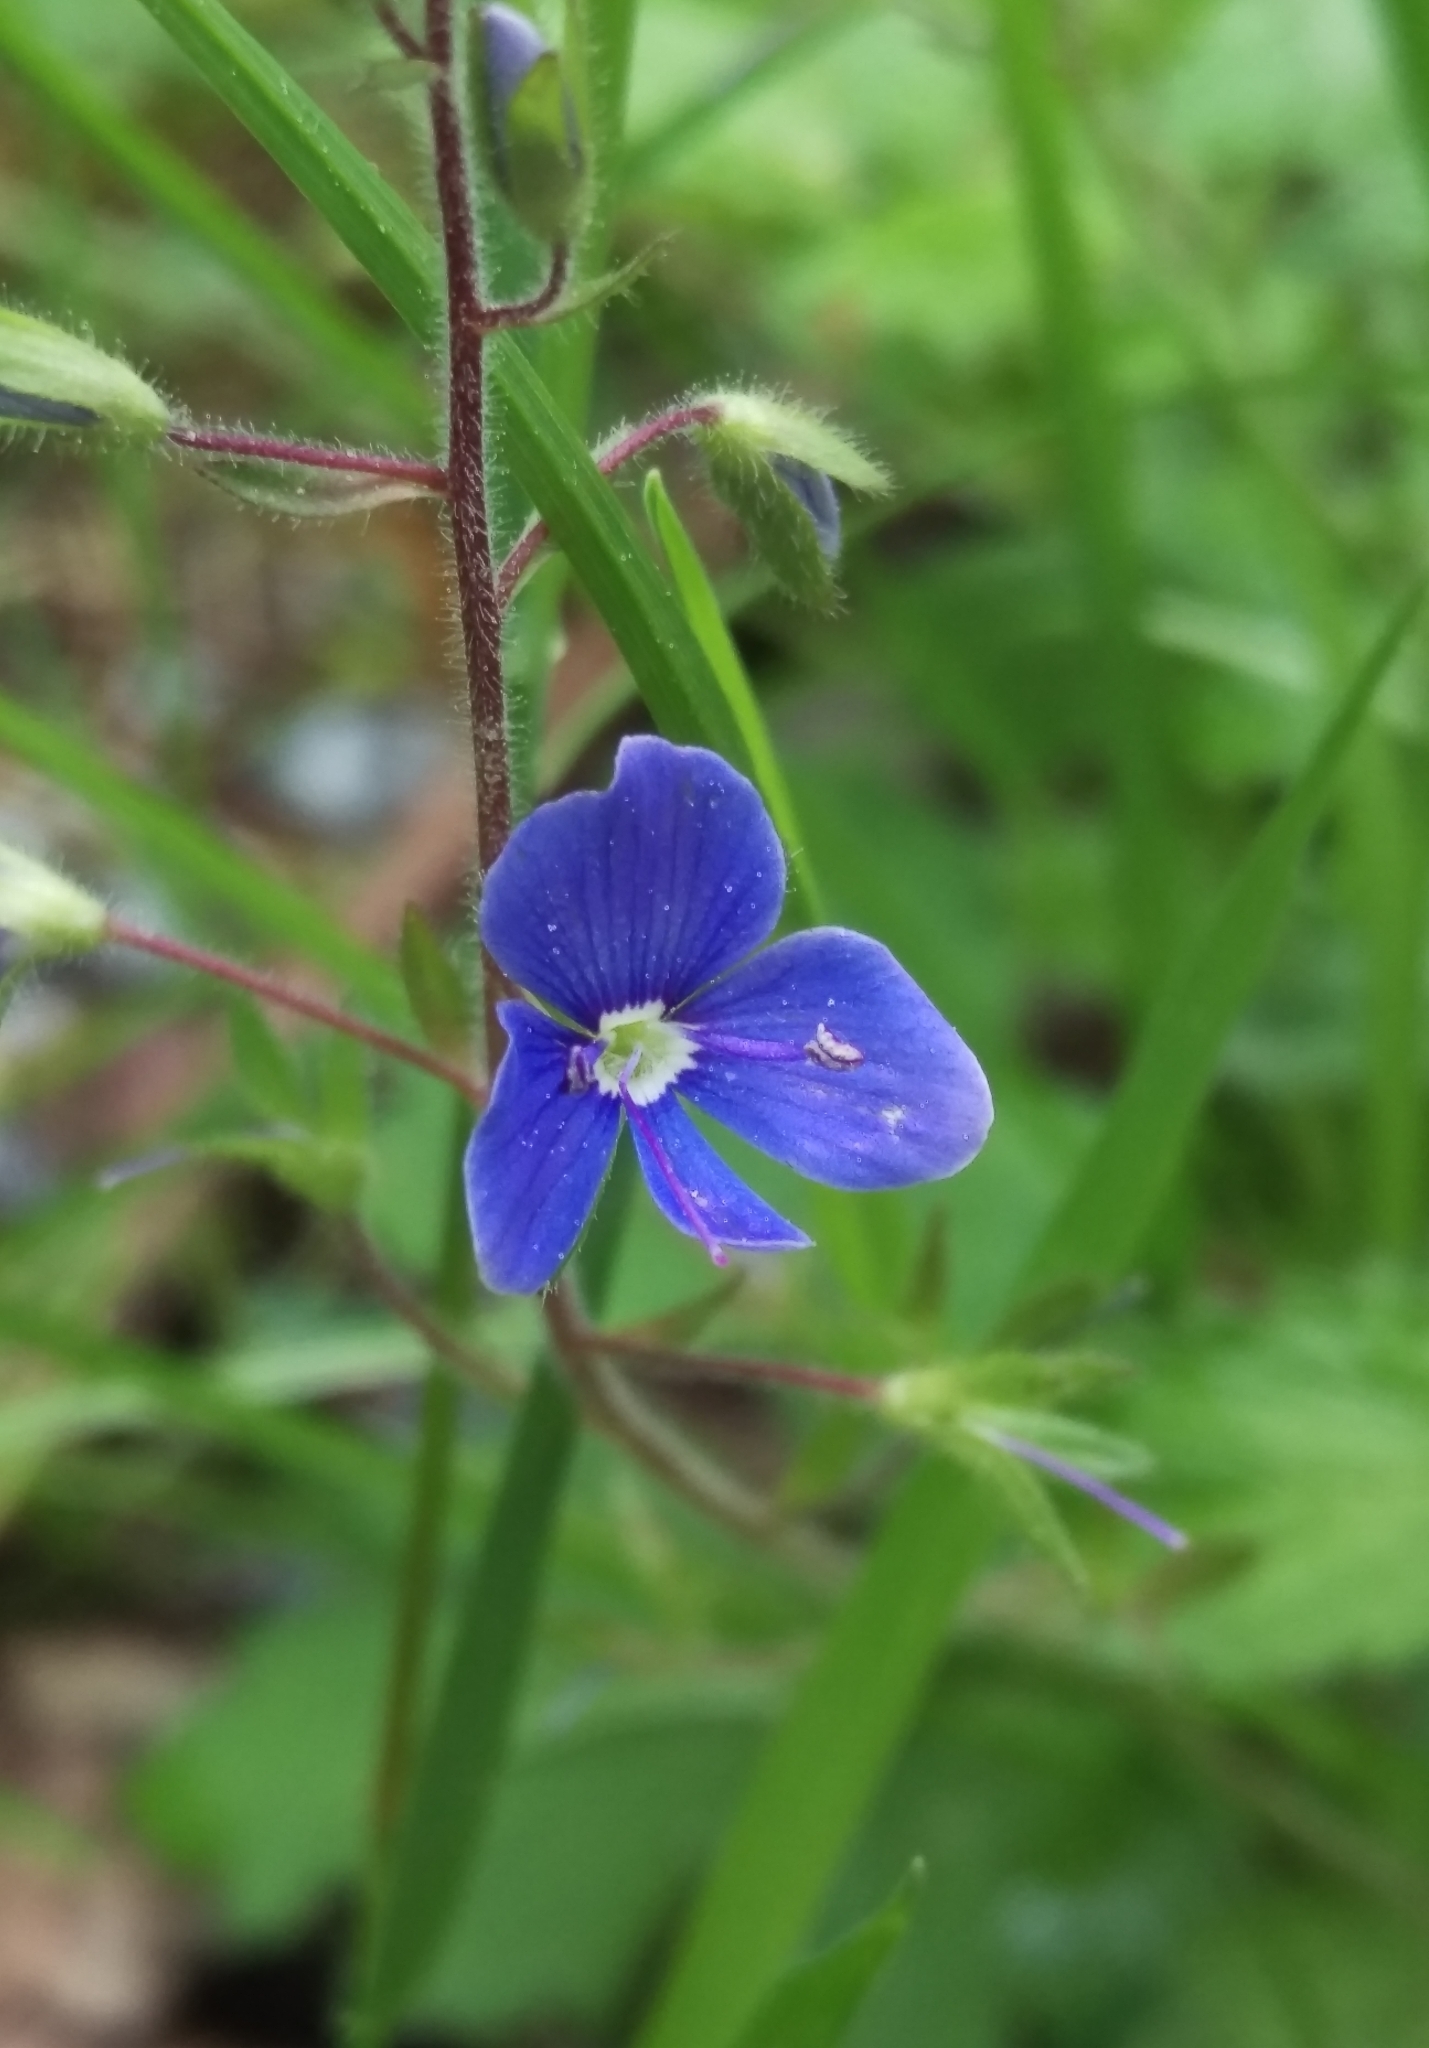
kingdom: Plantae
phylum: Tracheophyta
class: Magnoliopsida
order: Lamiales
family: Plantaginaceae
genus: Veronica
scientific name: Veronica chamaedrys
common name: Germander speedwell
